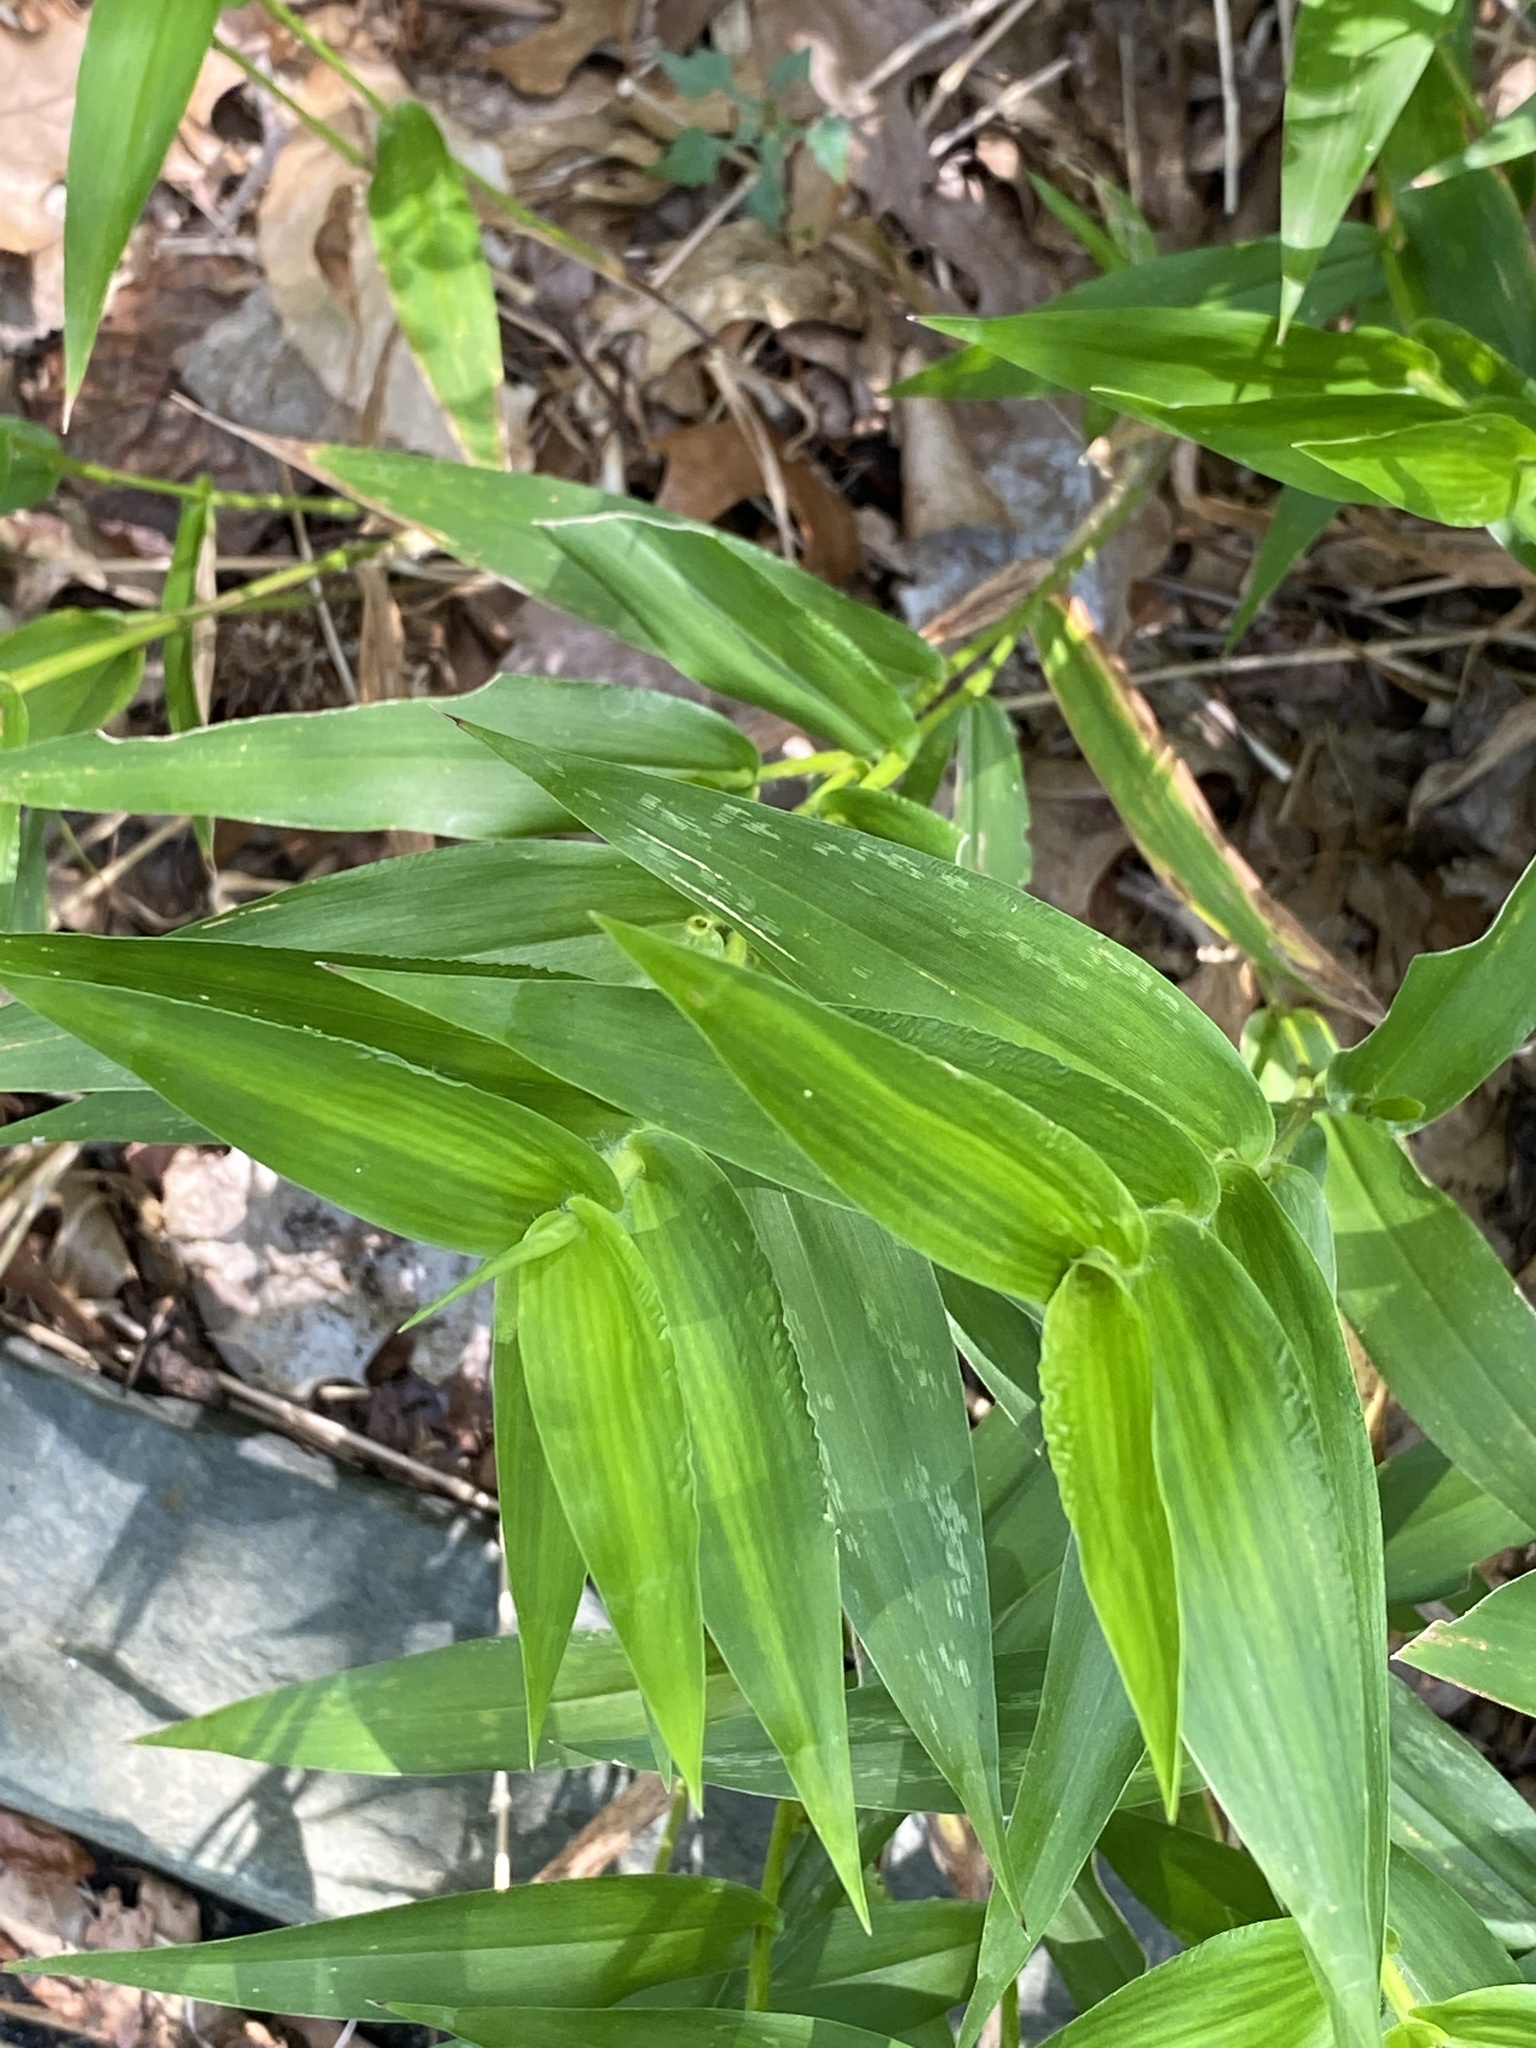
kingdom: Plantae
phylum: Tracheophyta
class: Liliopsida
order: Poales
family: Poaceae
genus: Dichanthelium
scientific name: Dichanthelium clandestinum
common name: Deer-tongue grass
